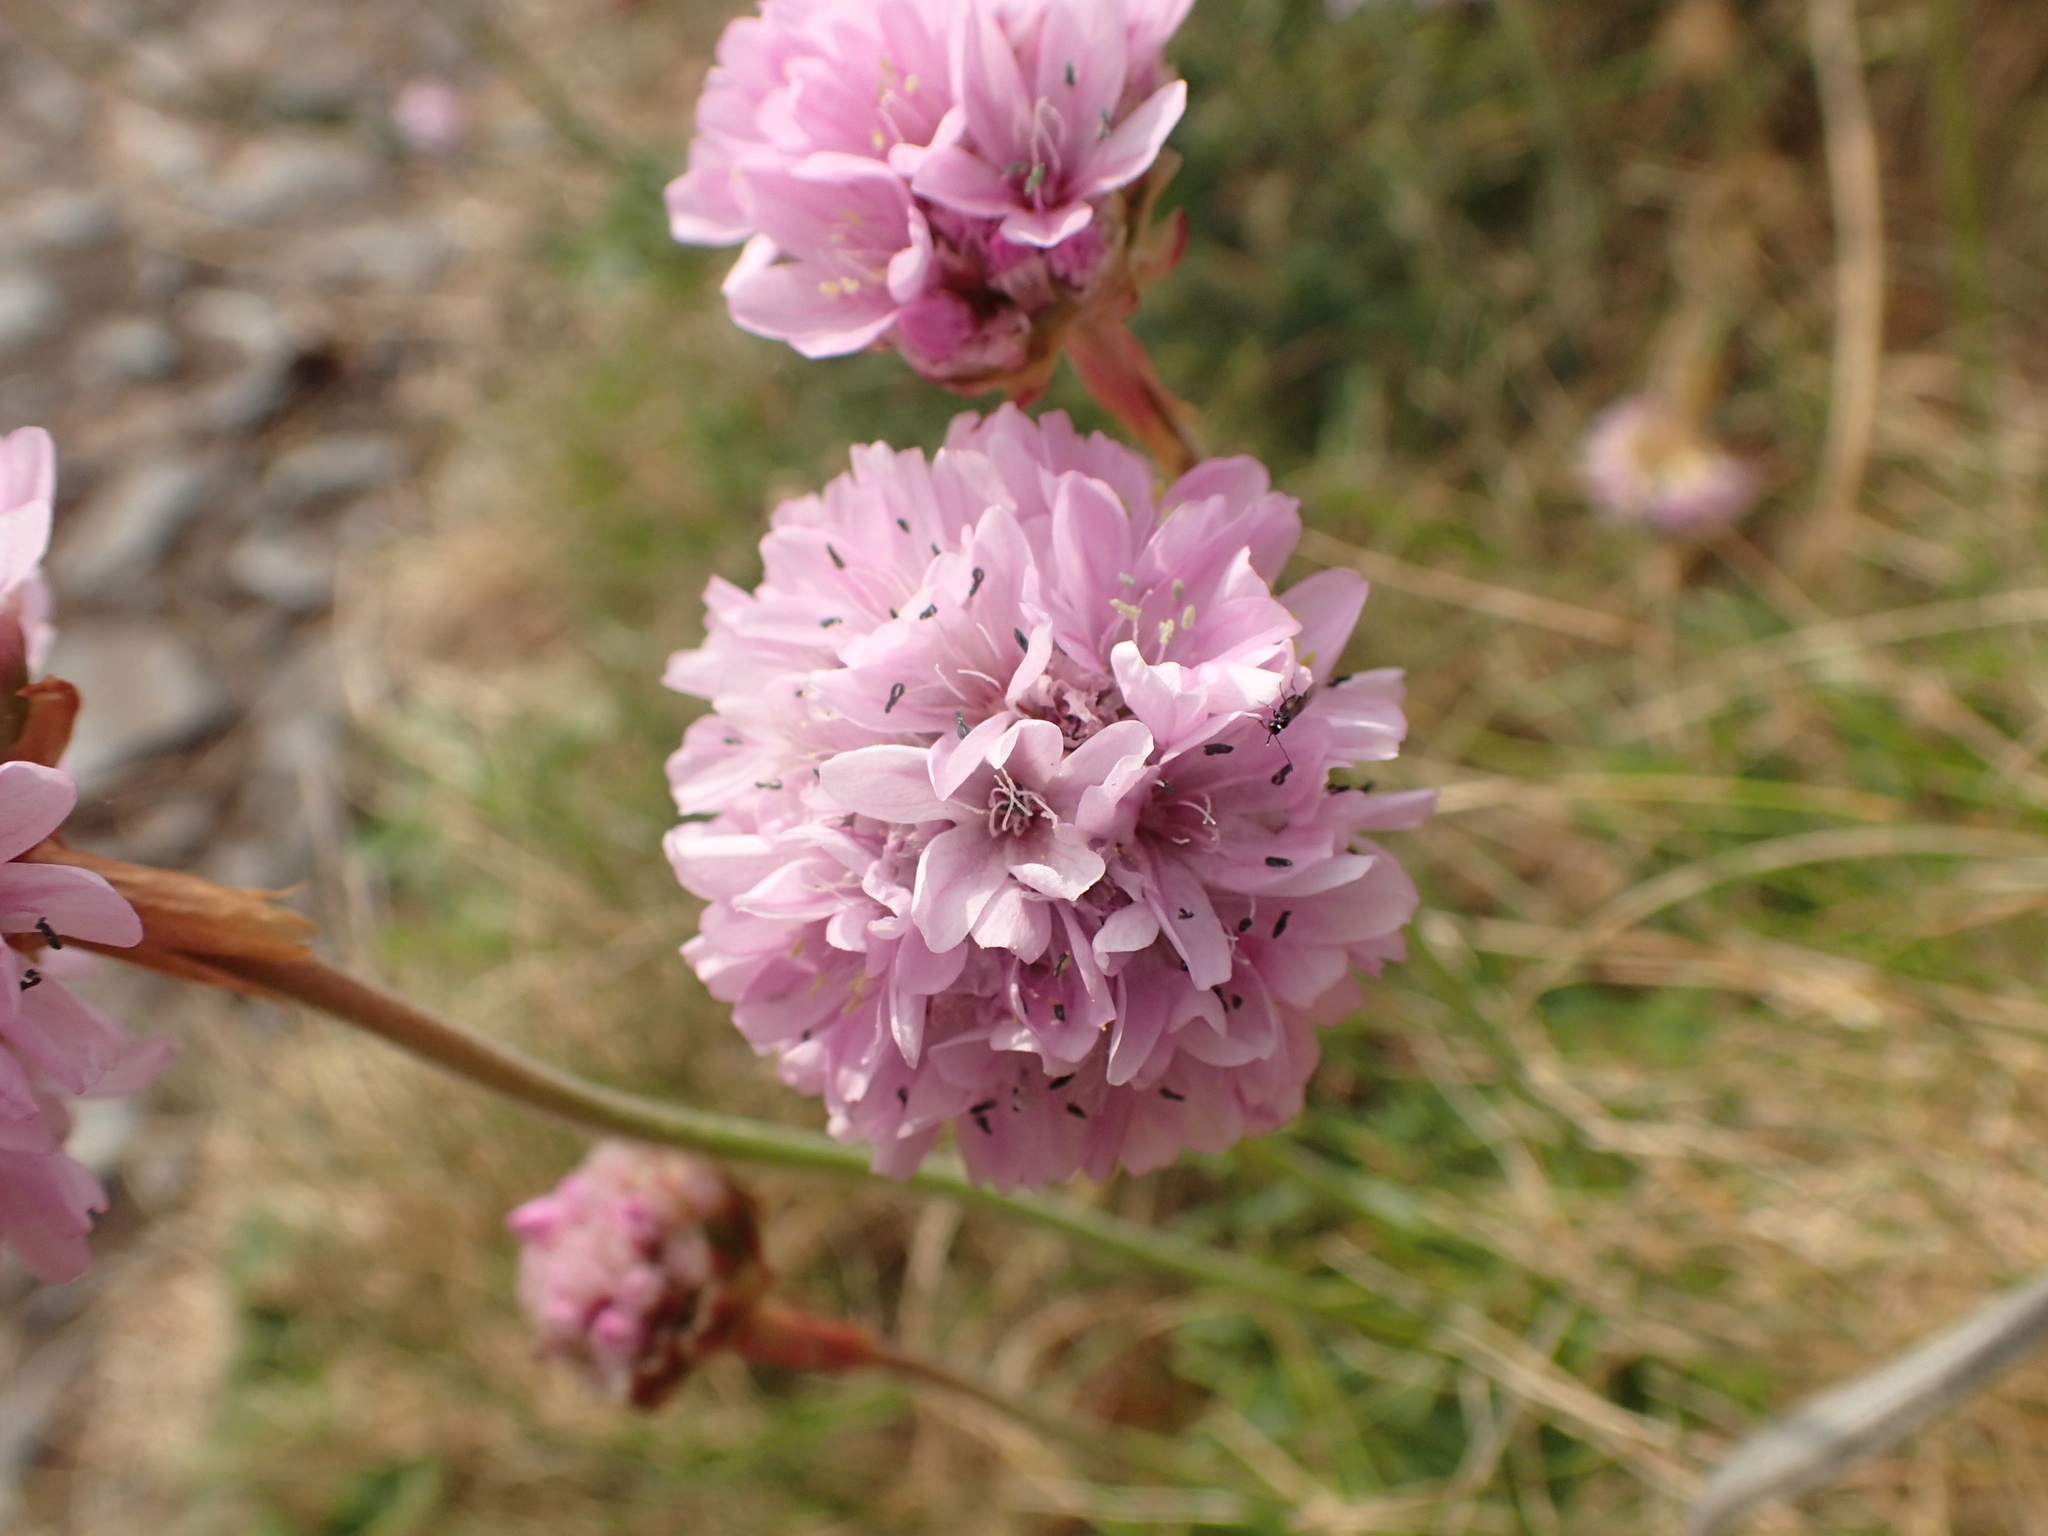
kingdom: Plantae
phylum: Tracheophyta
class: Magnoliopsida
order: Caryophyllales
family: Plumbaginaceae
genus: Armeria
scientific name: Armeria maritima
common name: Thrift
